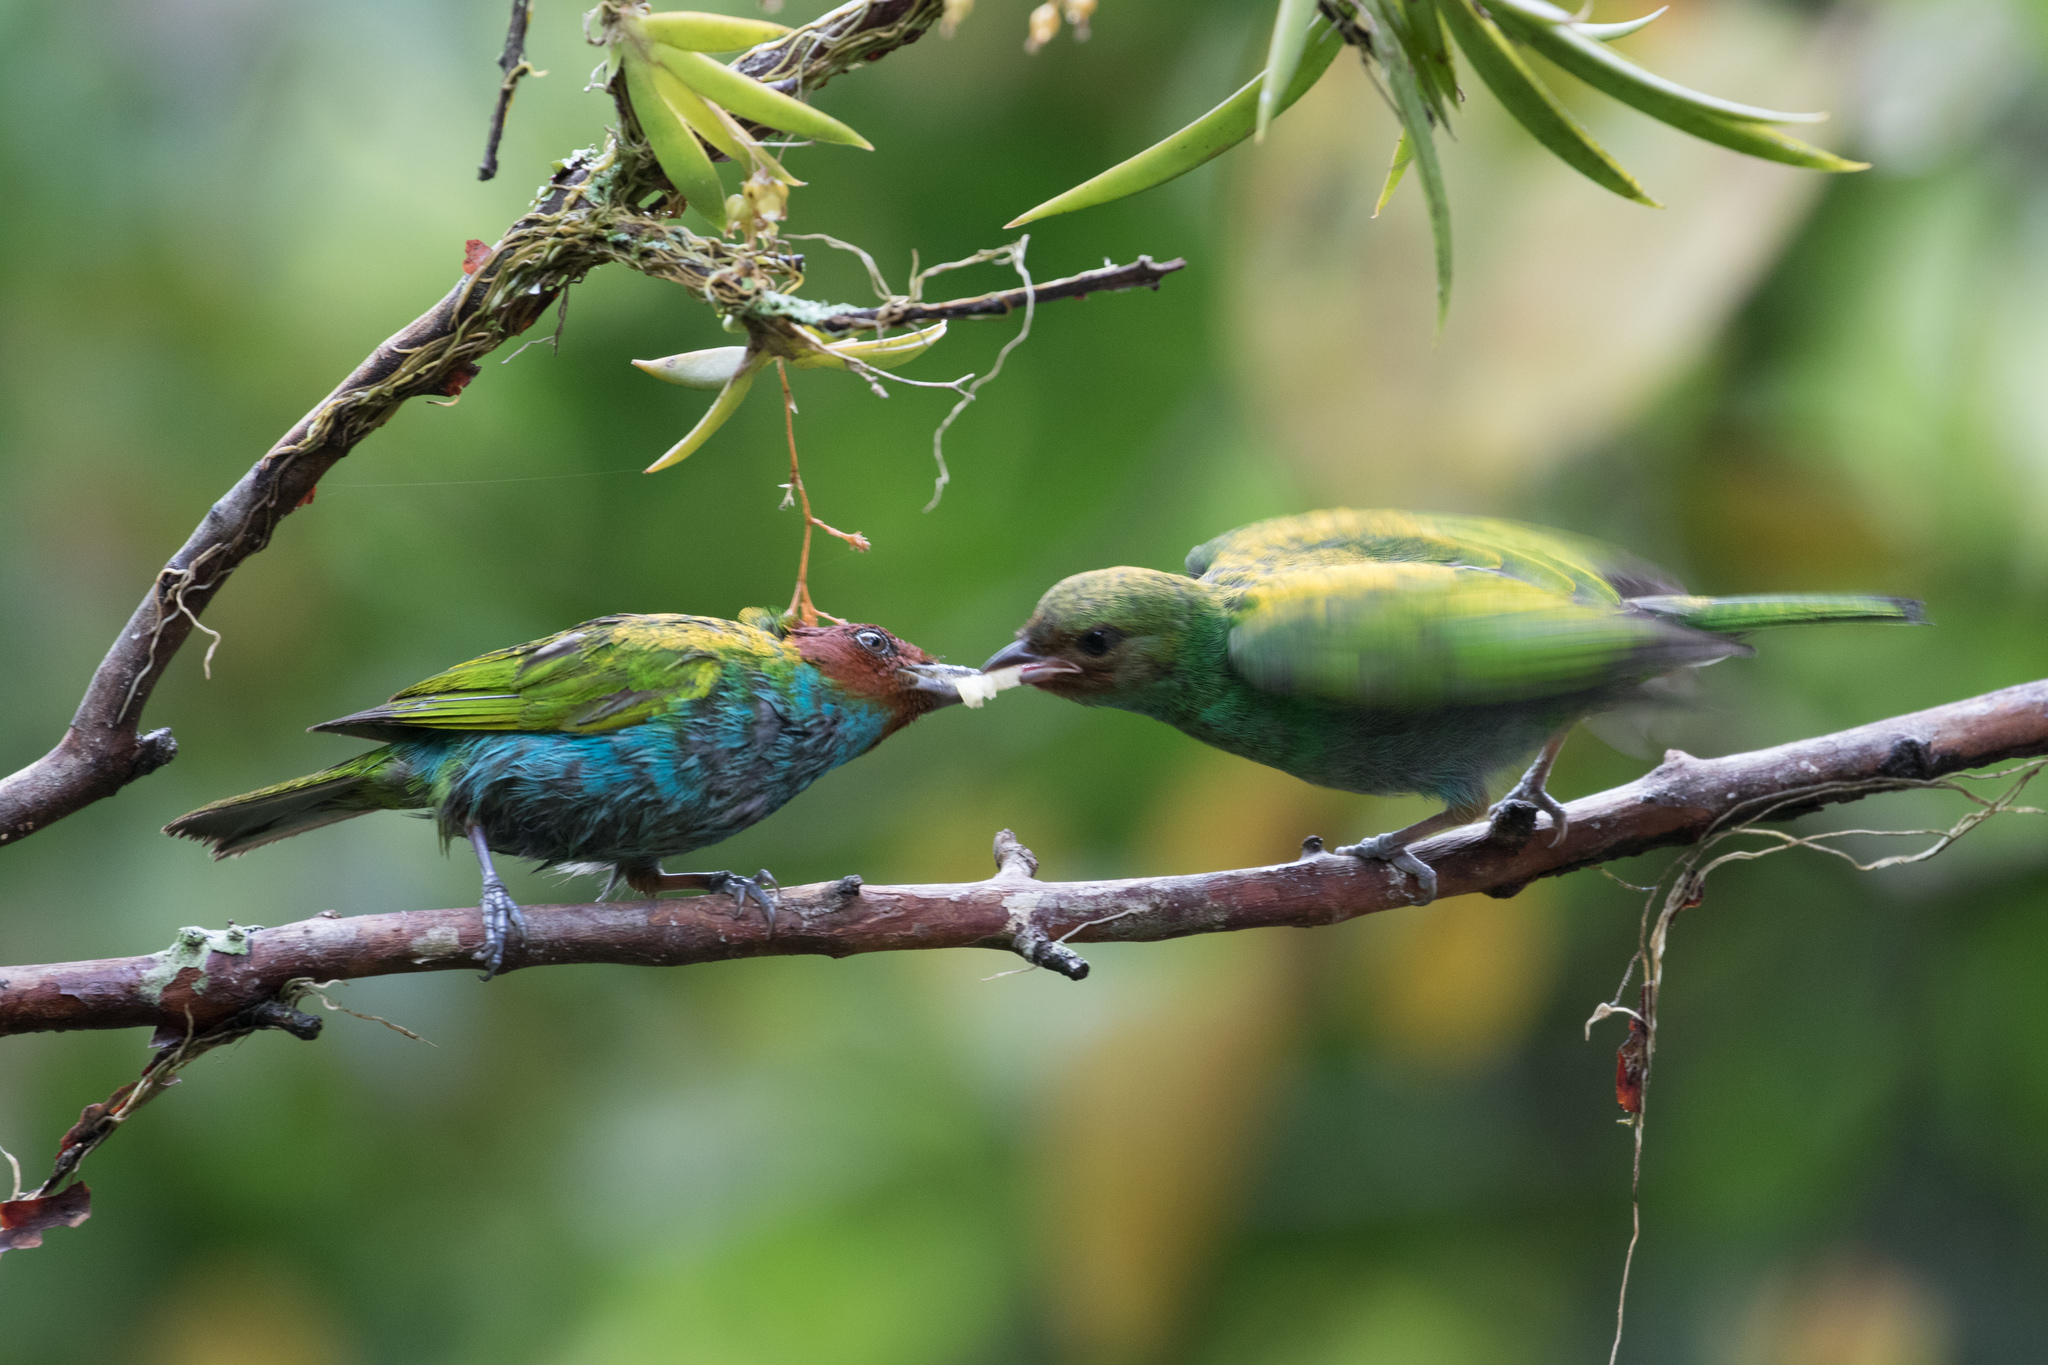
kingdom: Animalia
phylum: Chordata
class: Aves
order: Passeriformes
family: Thraupidae
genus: Tangara
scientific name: Tangara gyrola
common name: Bay-headed tanager
